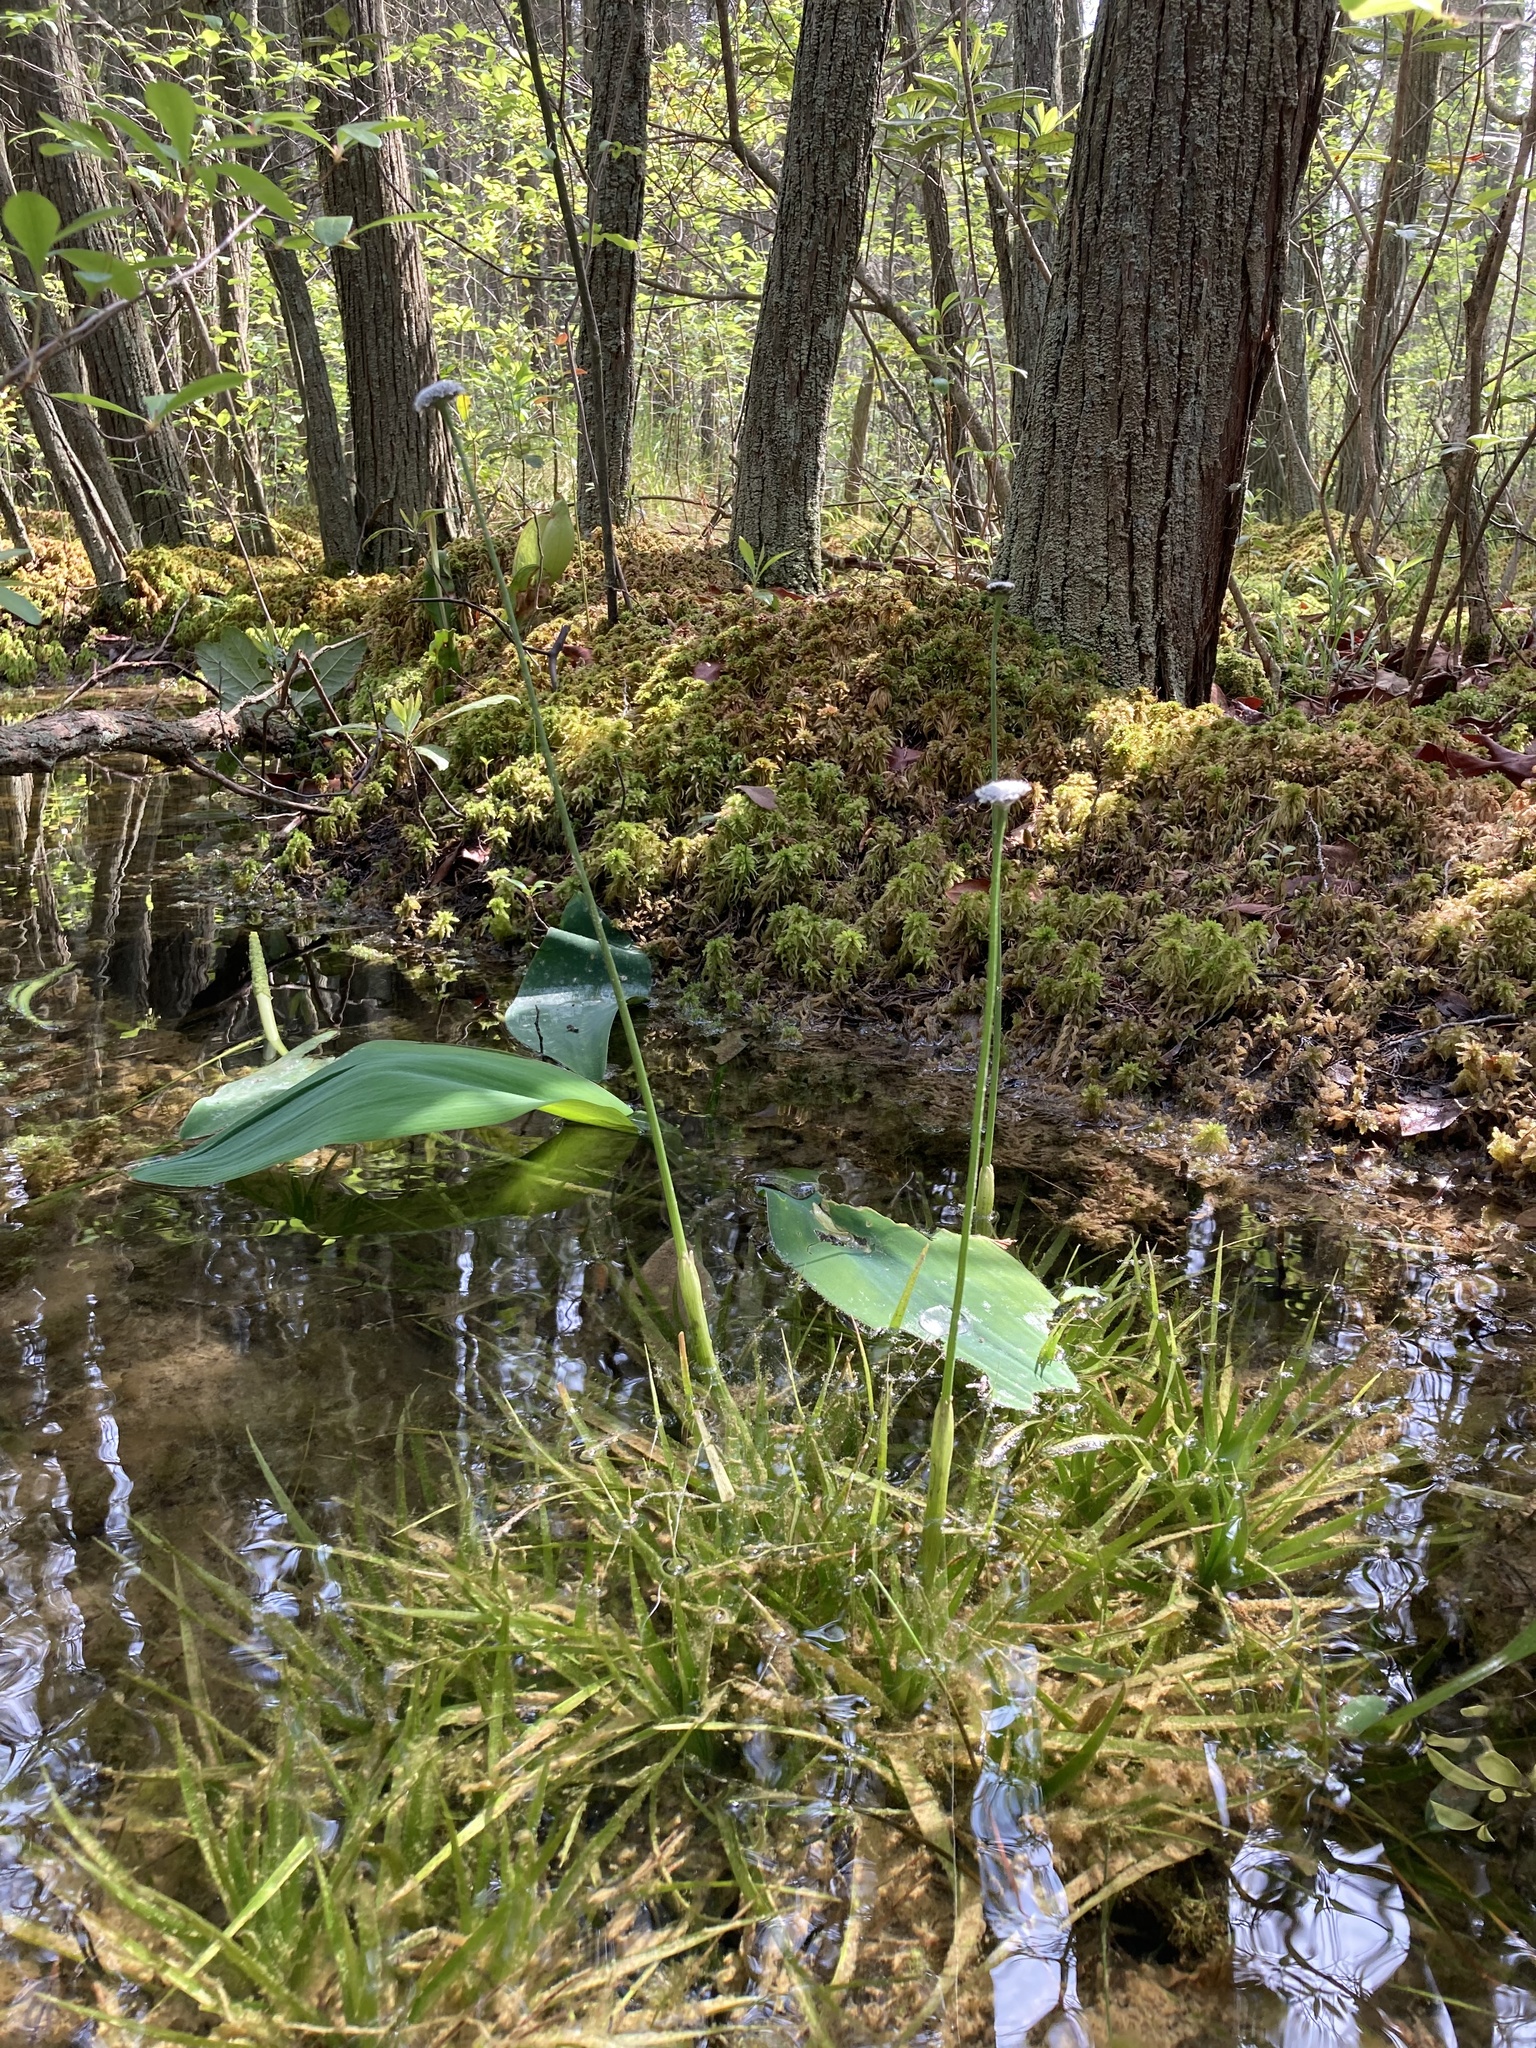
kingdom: Plantae
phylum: Tracheophyta
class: Liliopsida
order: Poales
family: Eriocaulaceae
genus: Eriocaulon
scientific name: Eriocaulon compressum
